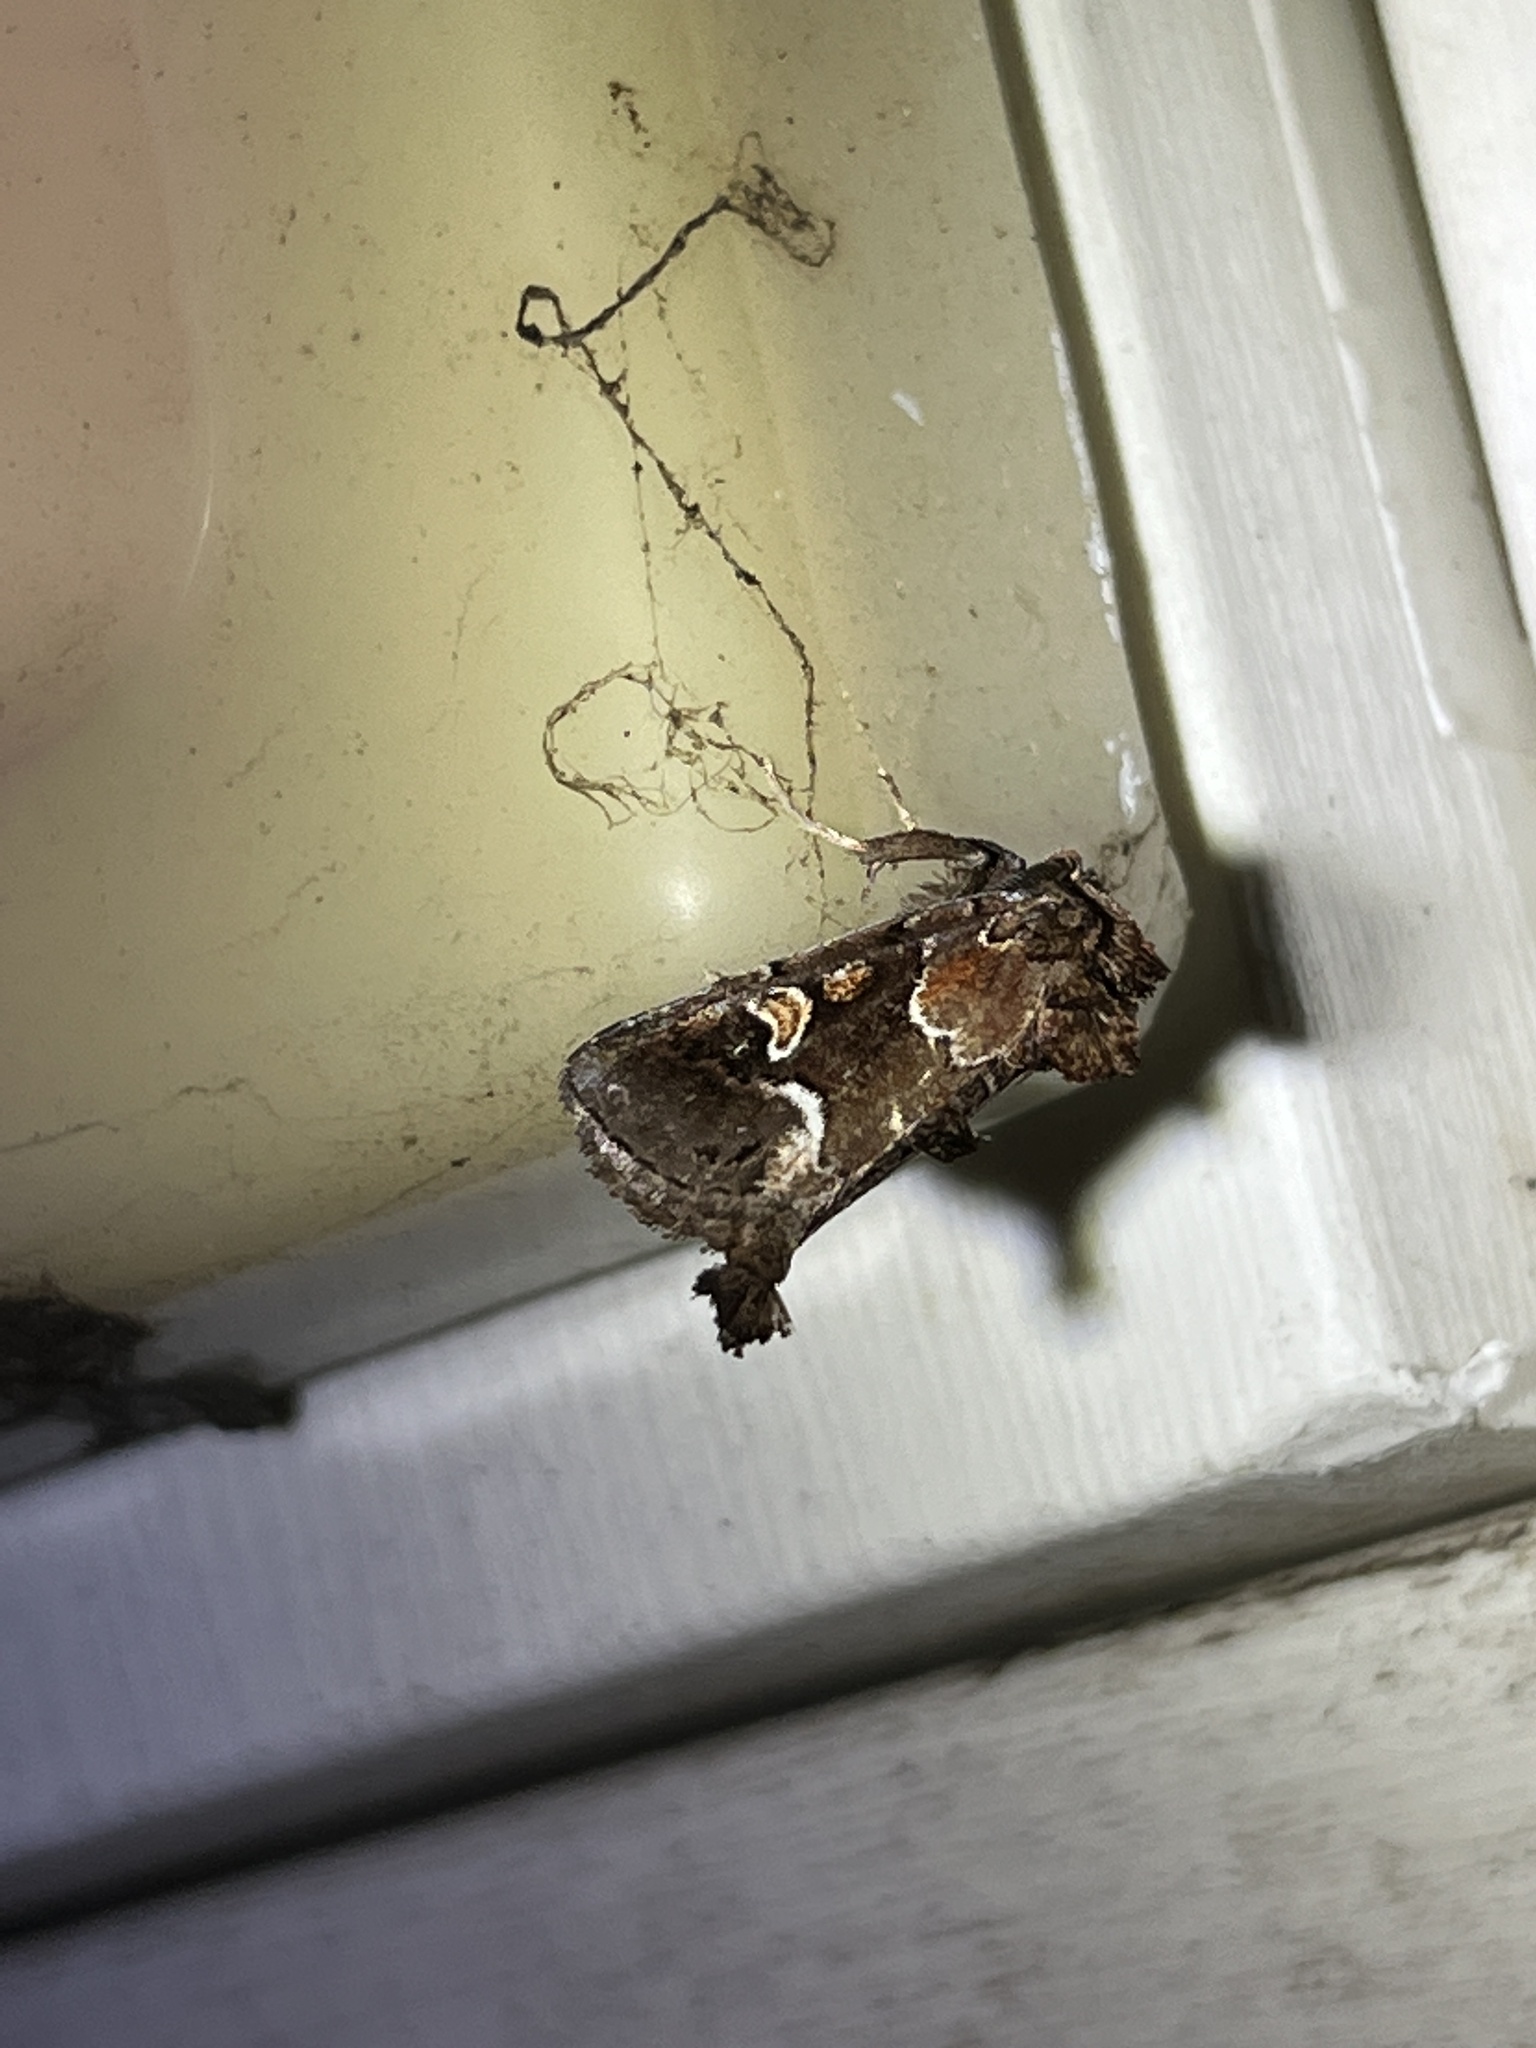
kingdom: Animalia
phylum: Arthropoda
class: Insecta
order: Lepidoptera
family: Noctuidae
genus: Acherdoa
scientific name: Acherdoa ferraria
